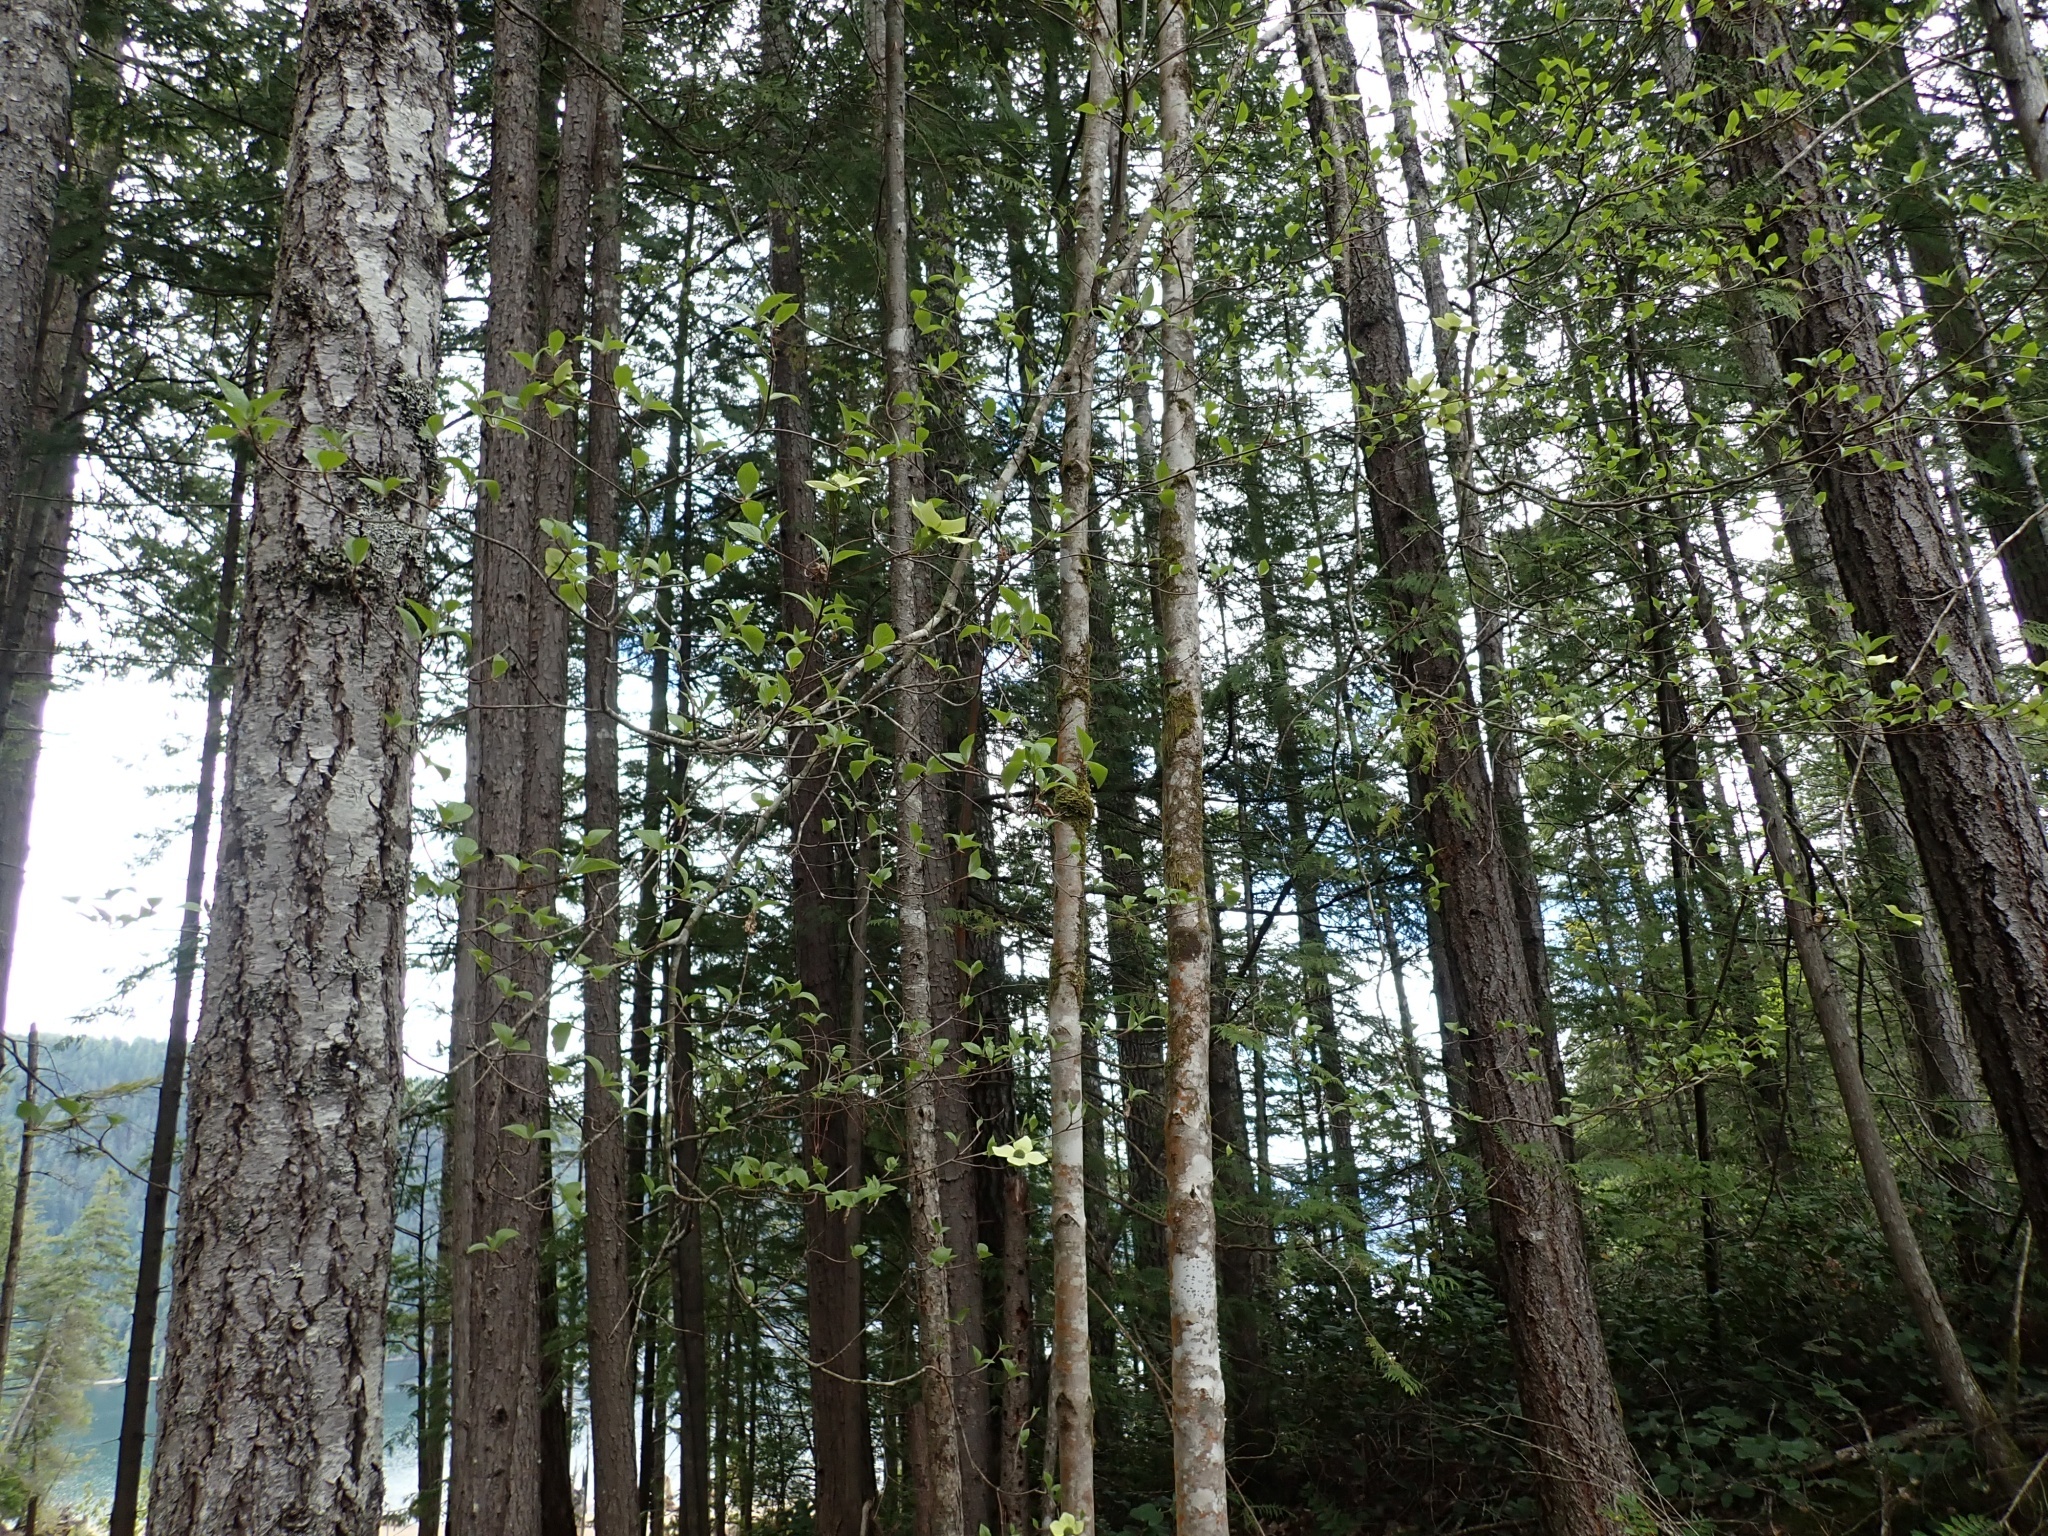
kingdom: Plantae
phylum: Tracheophyta
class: Magnoliopsida
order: Cornales
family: Cornaceae
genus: Cornus
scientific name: Cornus nuttallii
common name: Pacific dogwood
